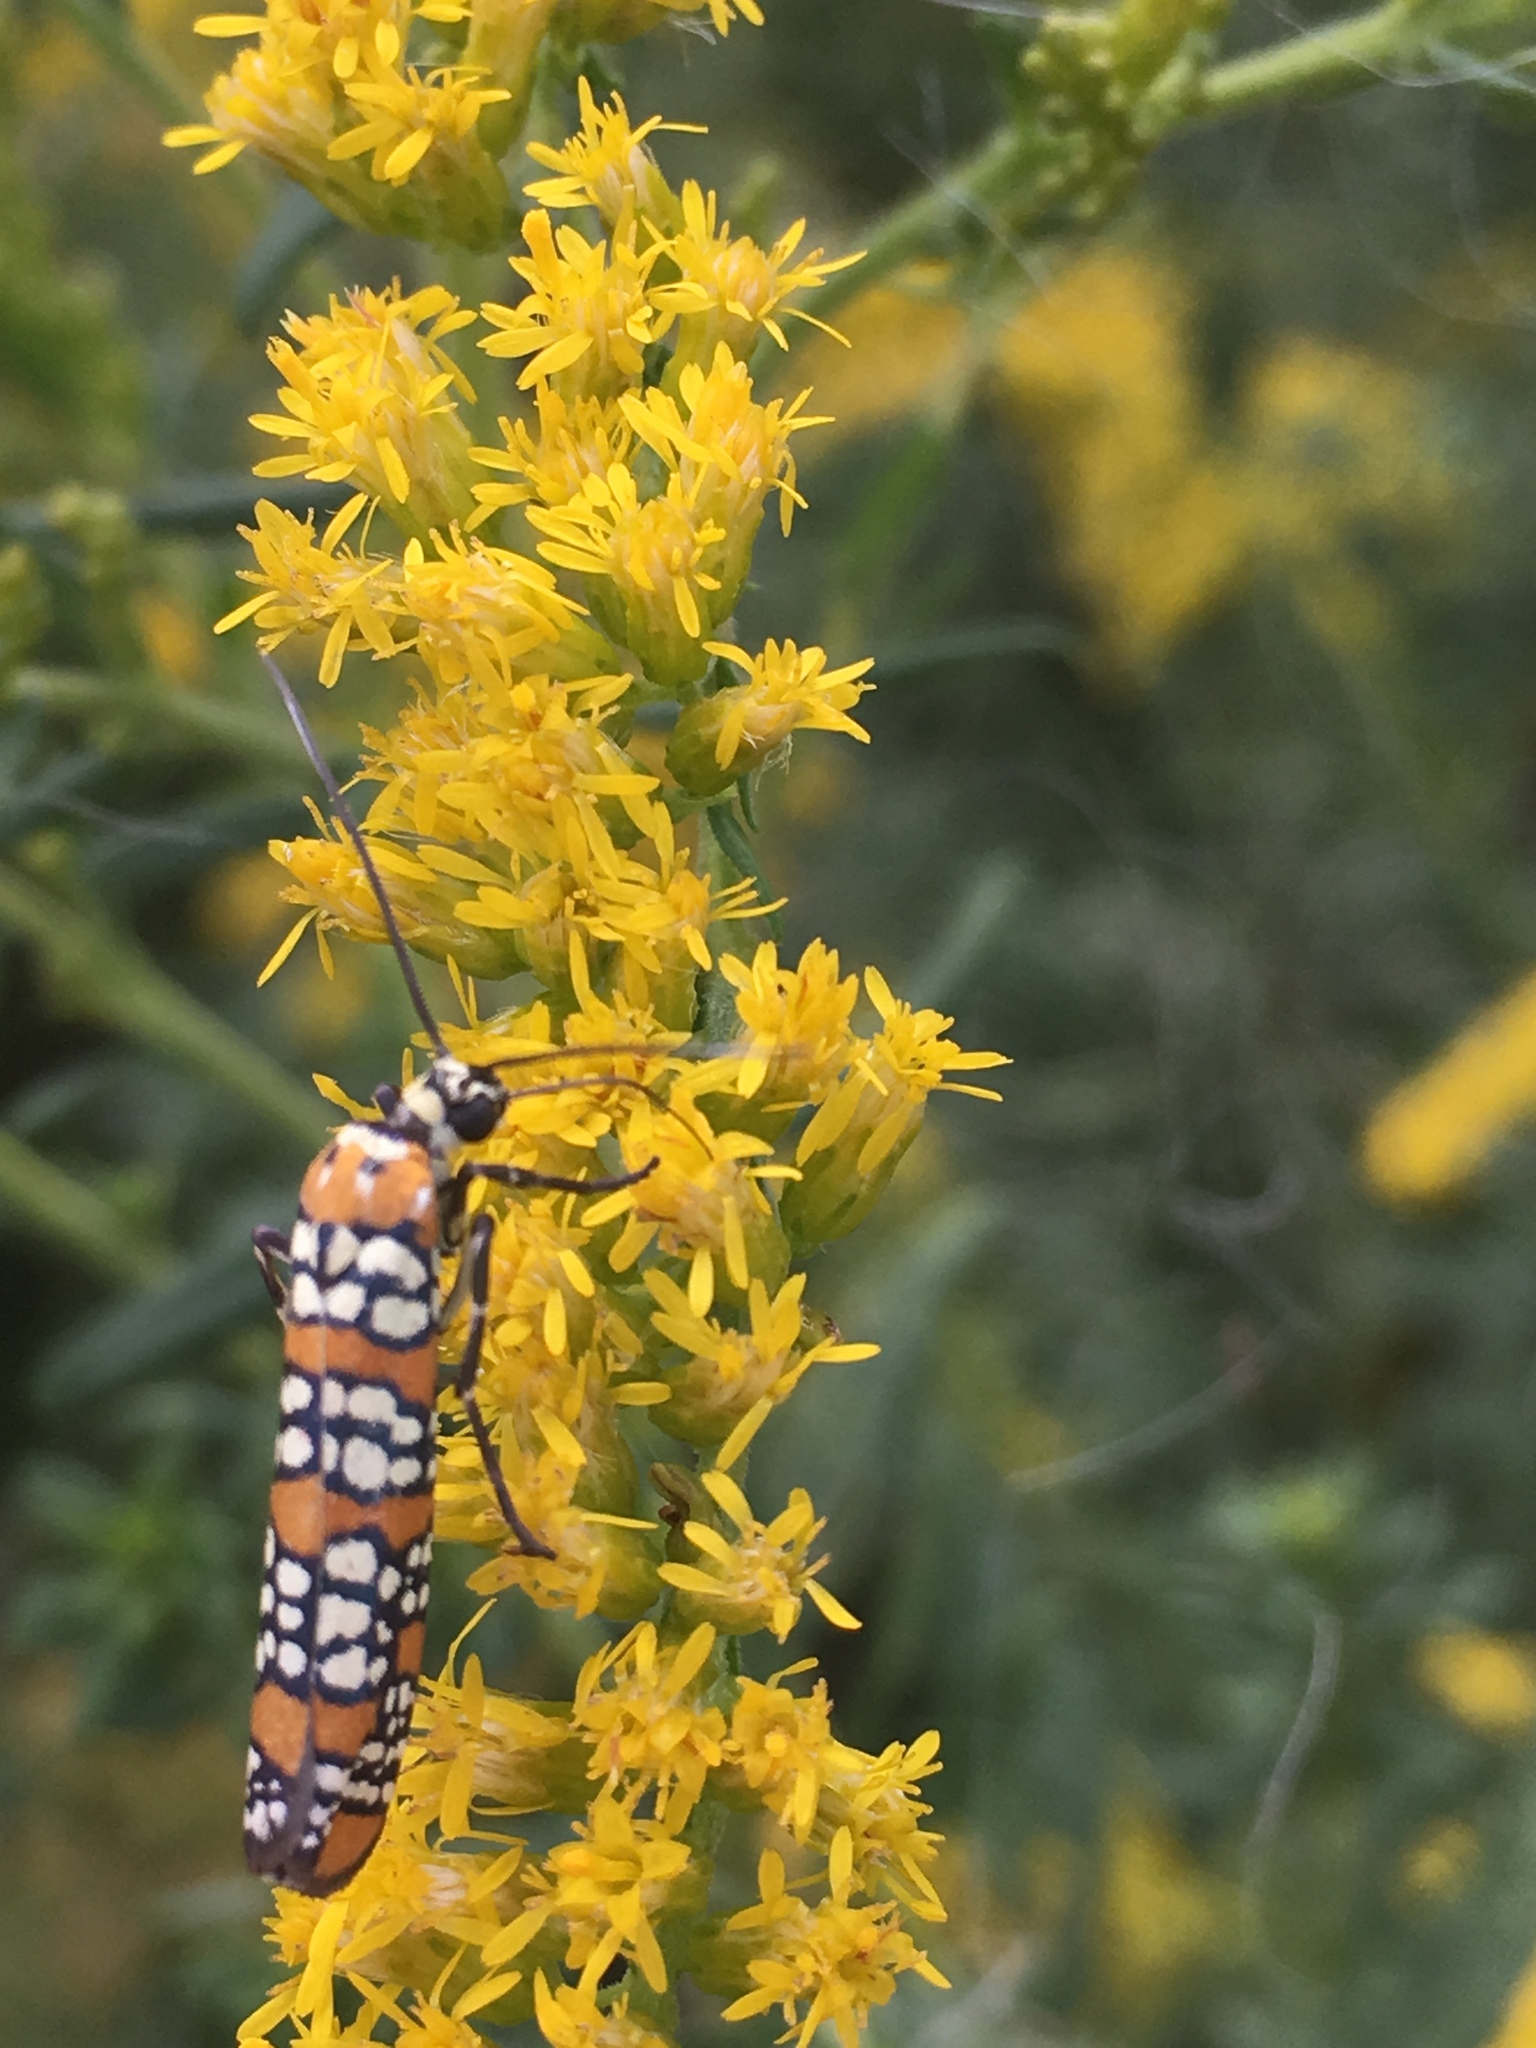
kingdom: Animalia
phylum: Arthropoda
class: Insecta
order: Lepidoptera
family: Attevidae
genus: Atteva
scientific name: Atteva punctella
